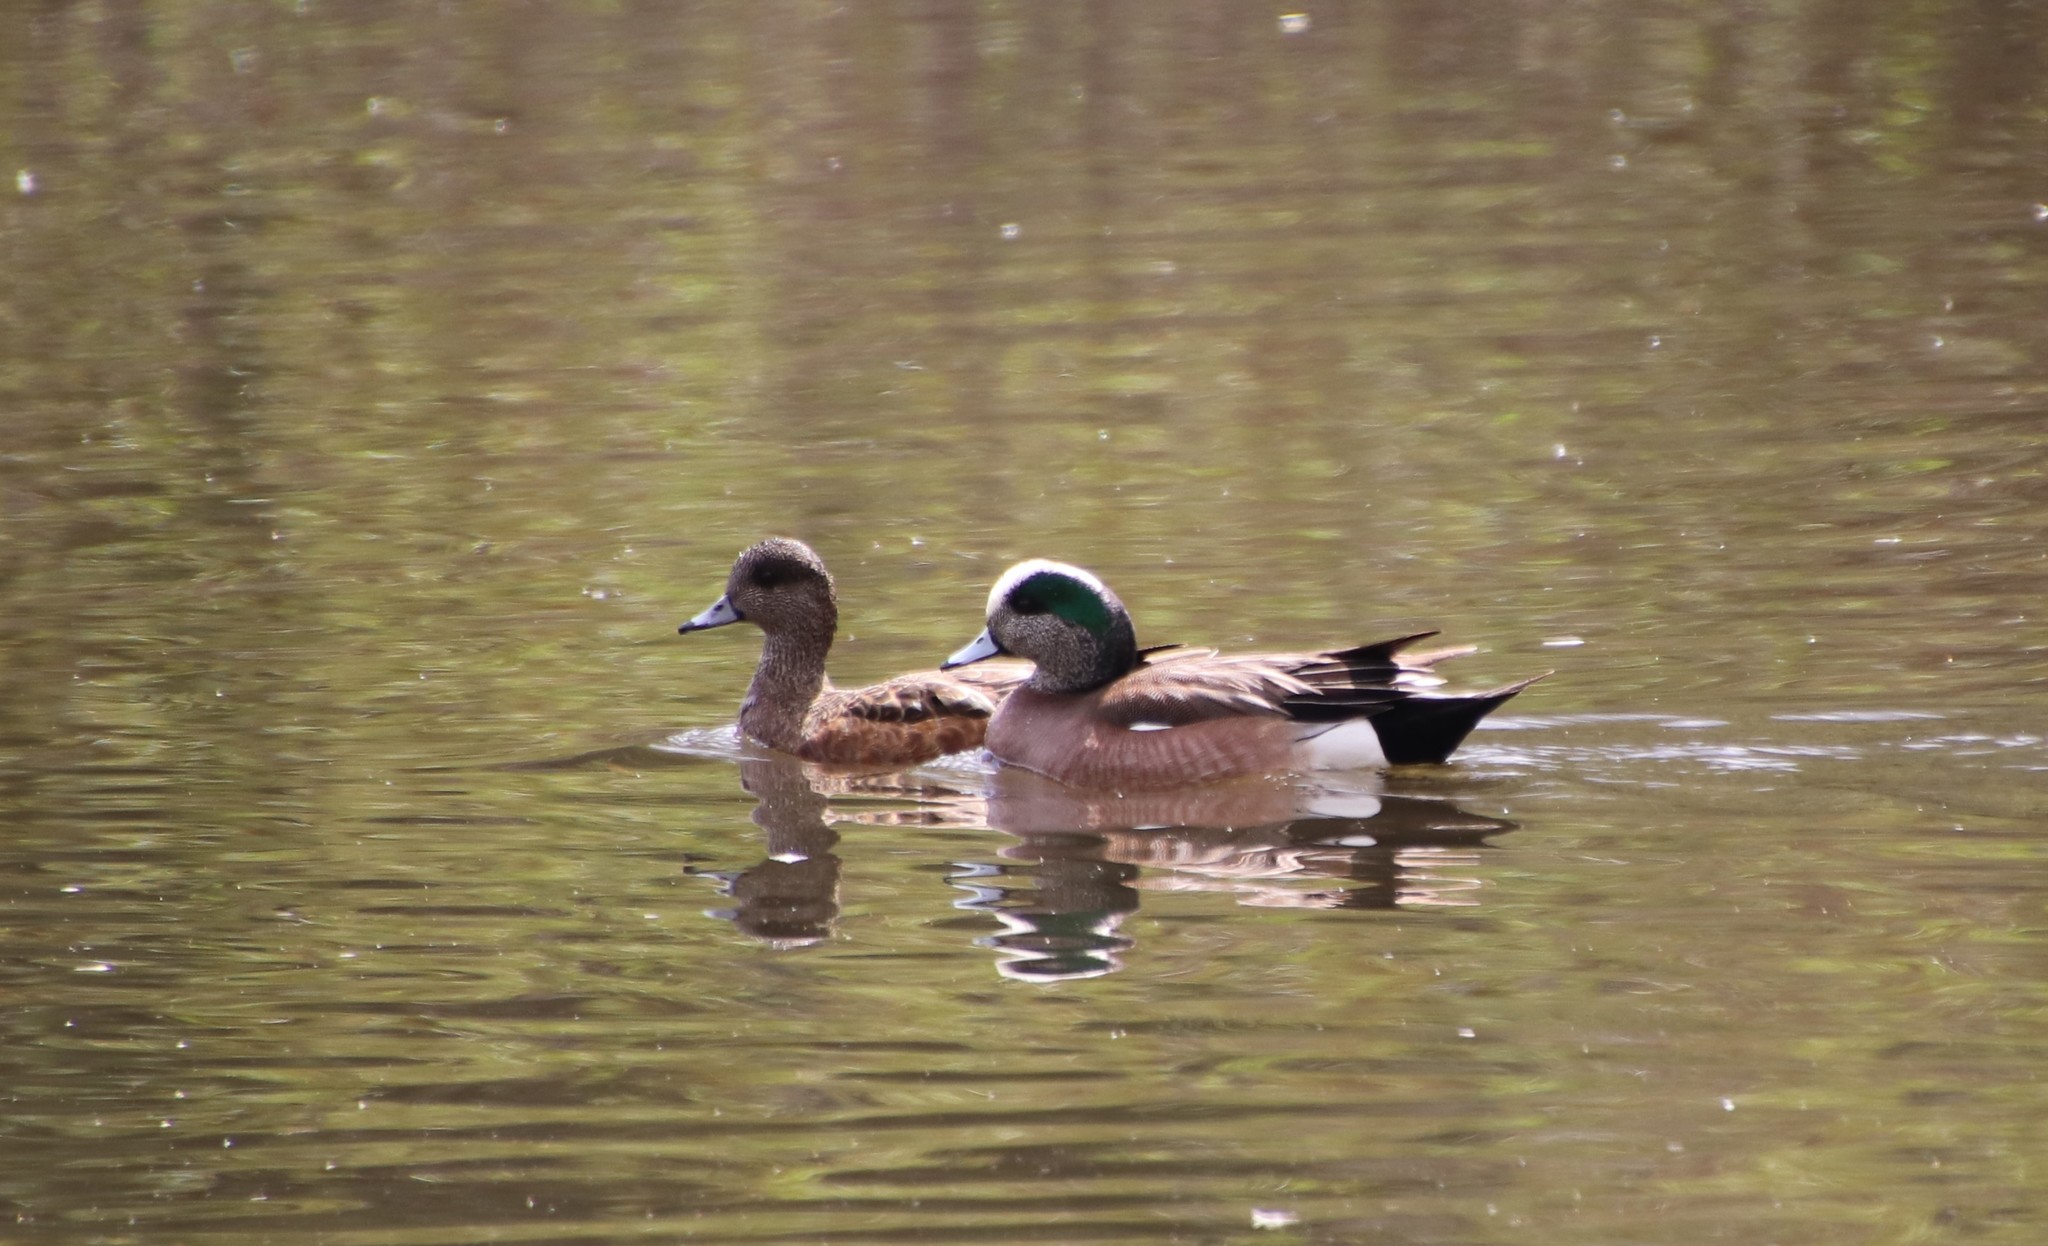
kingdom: Animalia
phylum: Chordata
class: Aves
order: Anseriformes
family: Anatidae
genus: Mareca
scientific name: Mareca americana
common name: American wigeon
